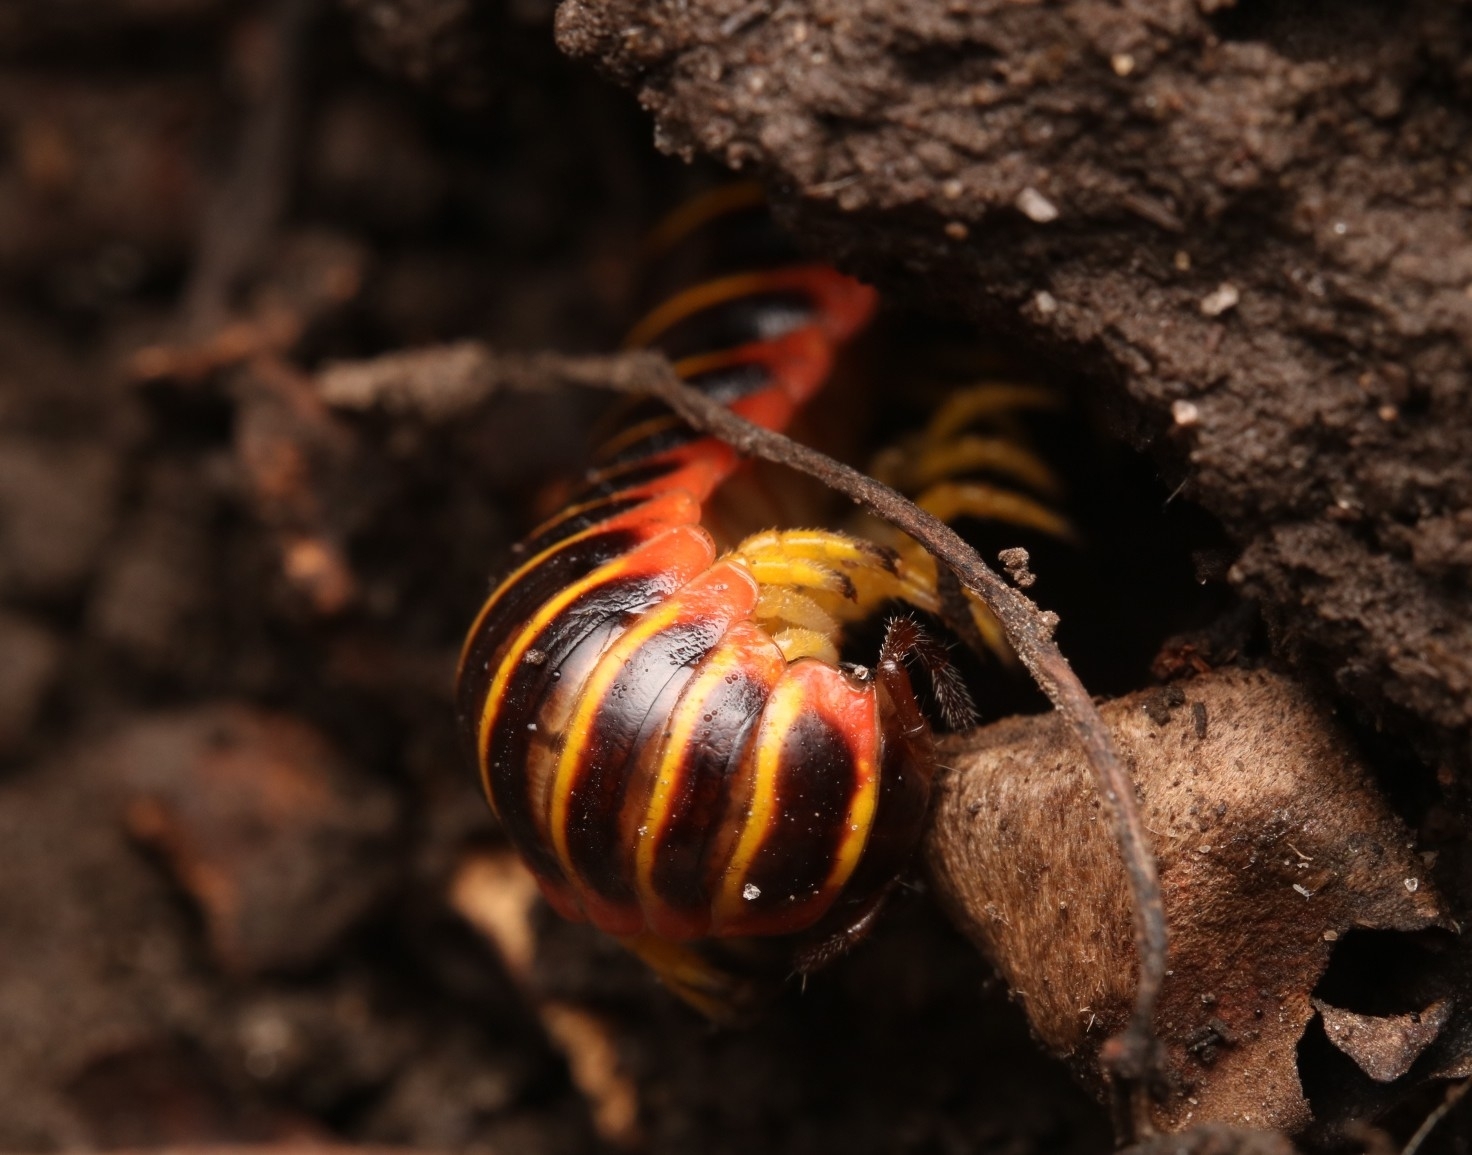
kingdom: Animalia
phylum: Arthropoda
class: Diplopoda
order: Polydesmida
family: Xystodesmidae
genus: Apheloria
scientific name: Apheloria virginiensis
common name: Black-and-gold flat millipede
